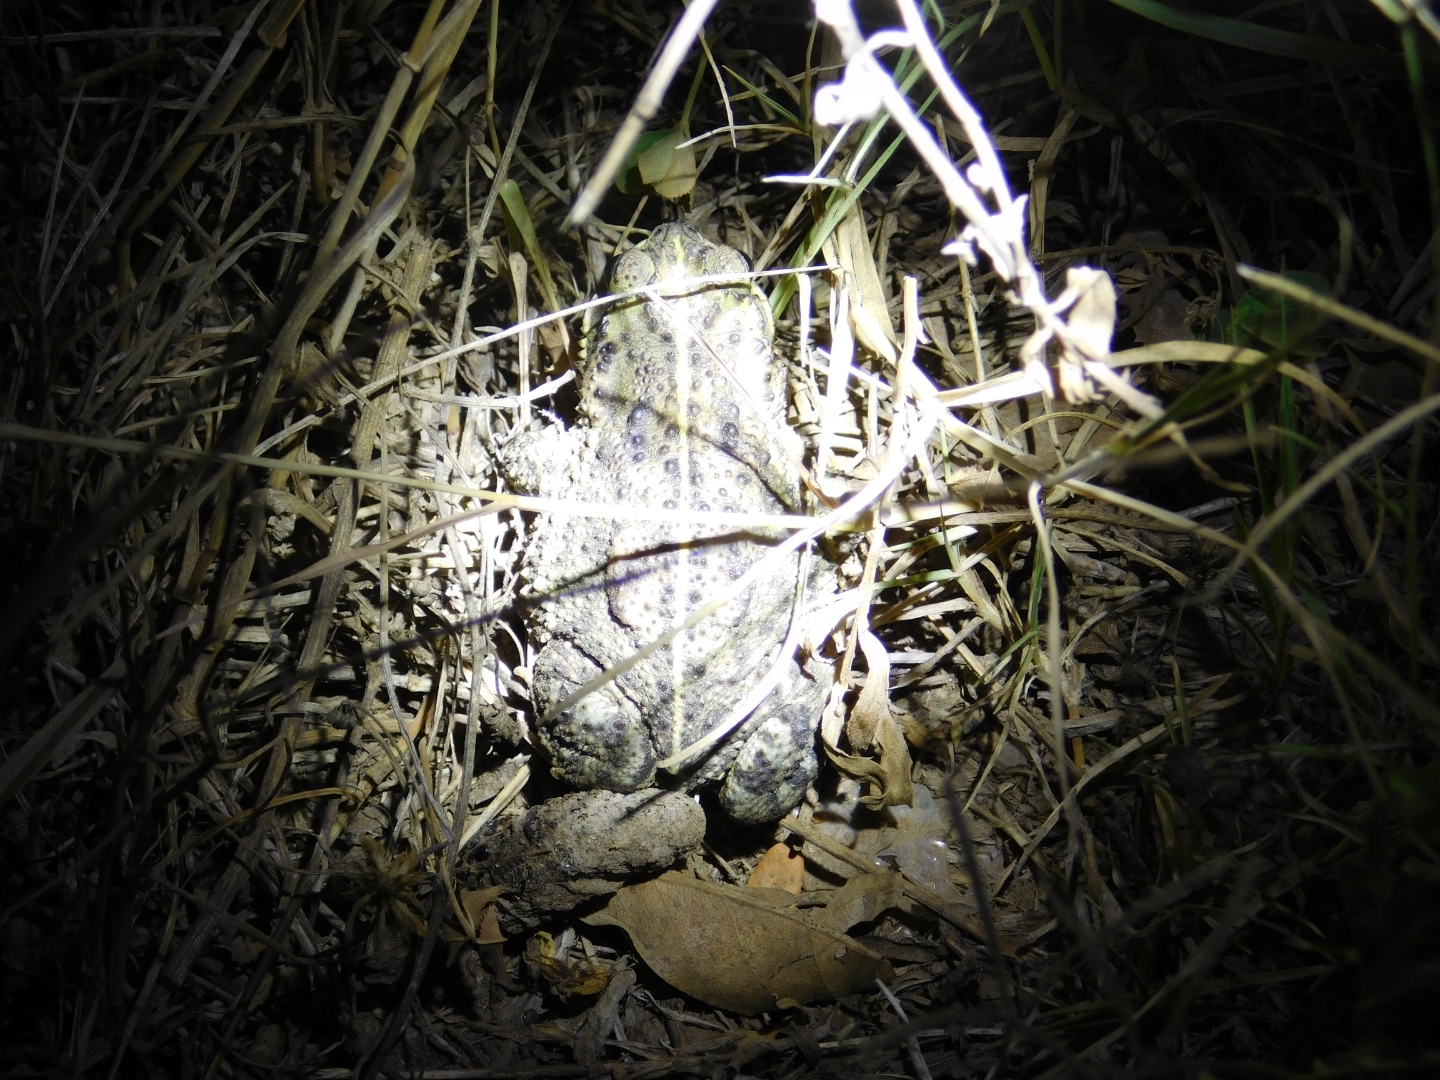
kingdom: Animalia
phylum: Chordata
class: Amphibia
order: Anura
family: Bufonidae
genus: Rhinella
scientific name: Rhinella dorbignyi
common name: D´orbigny’s toad
